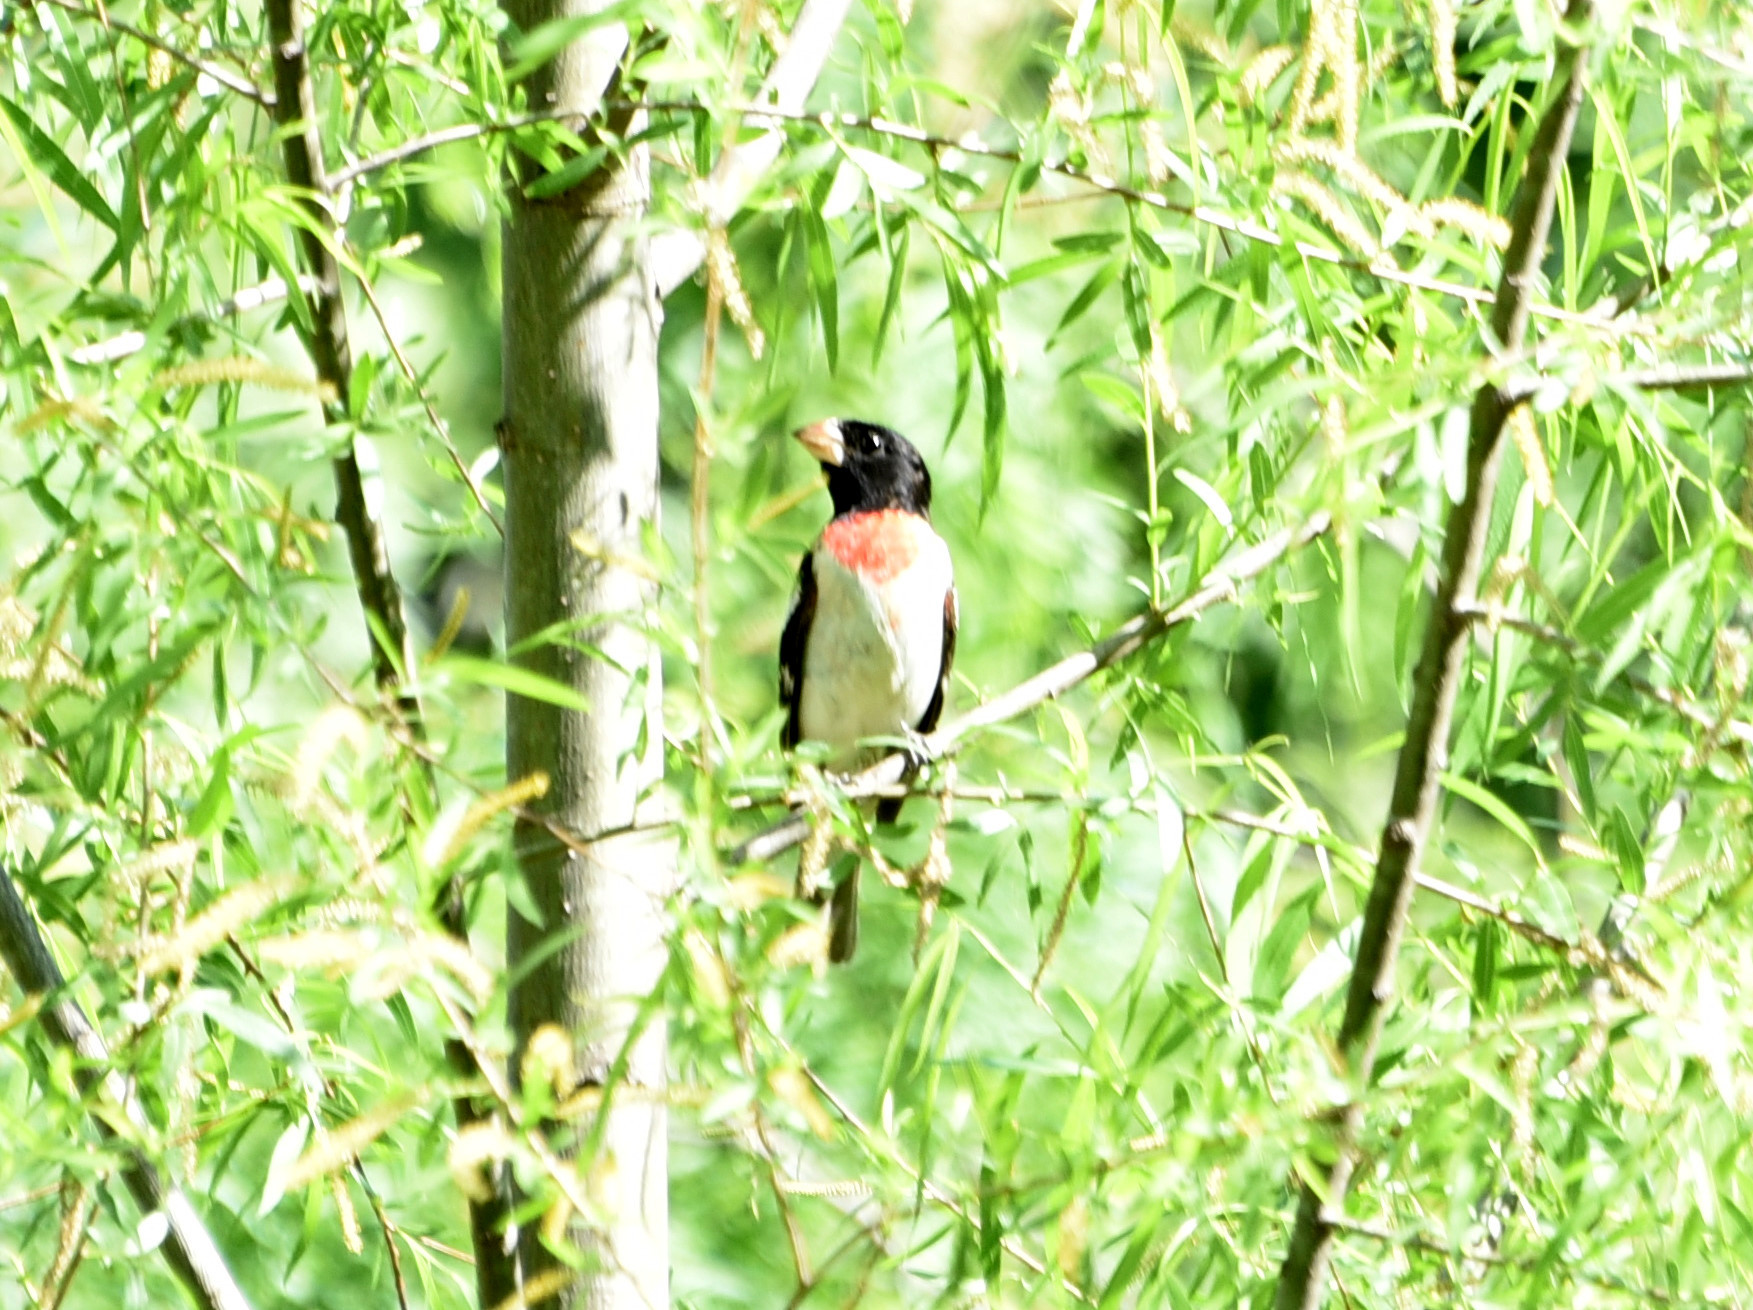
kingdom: Animalia
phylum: Chordata
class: Aves
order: Passeriformes
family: Cardinalidae
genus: Pheucticus
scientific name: Pheucticus ludovicianus
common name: Rose-breasted grosbeak
